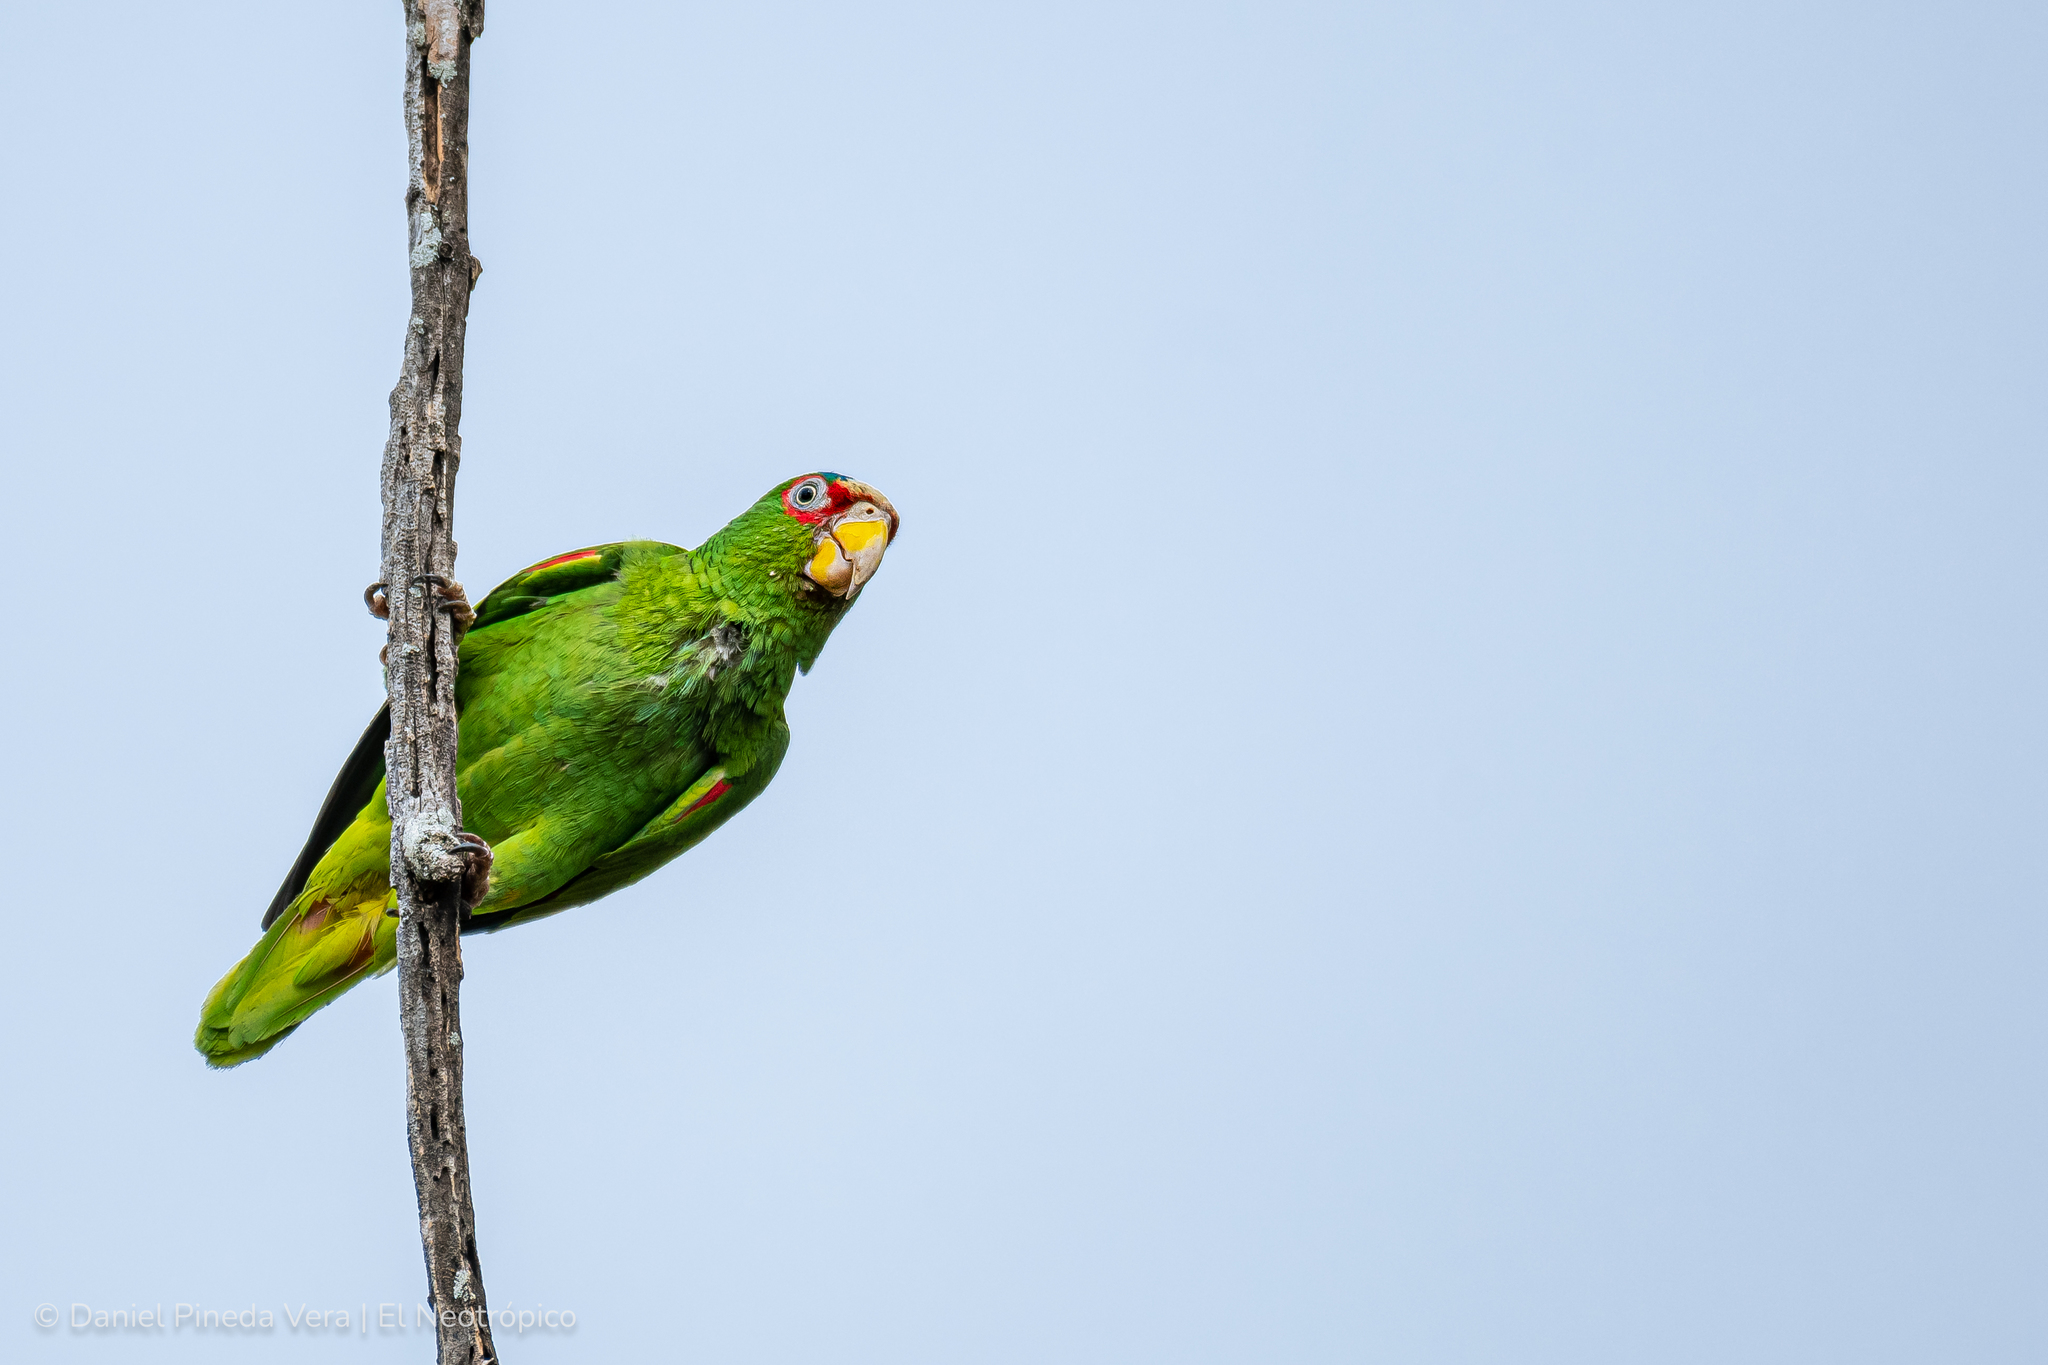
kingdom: Animalia
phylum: Chordata
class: Aves
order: Psittaciformes
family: Psittacidae
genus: Amazona
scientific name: Amazona albifrons
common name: White-fronted amazon
